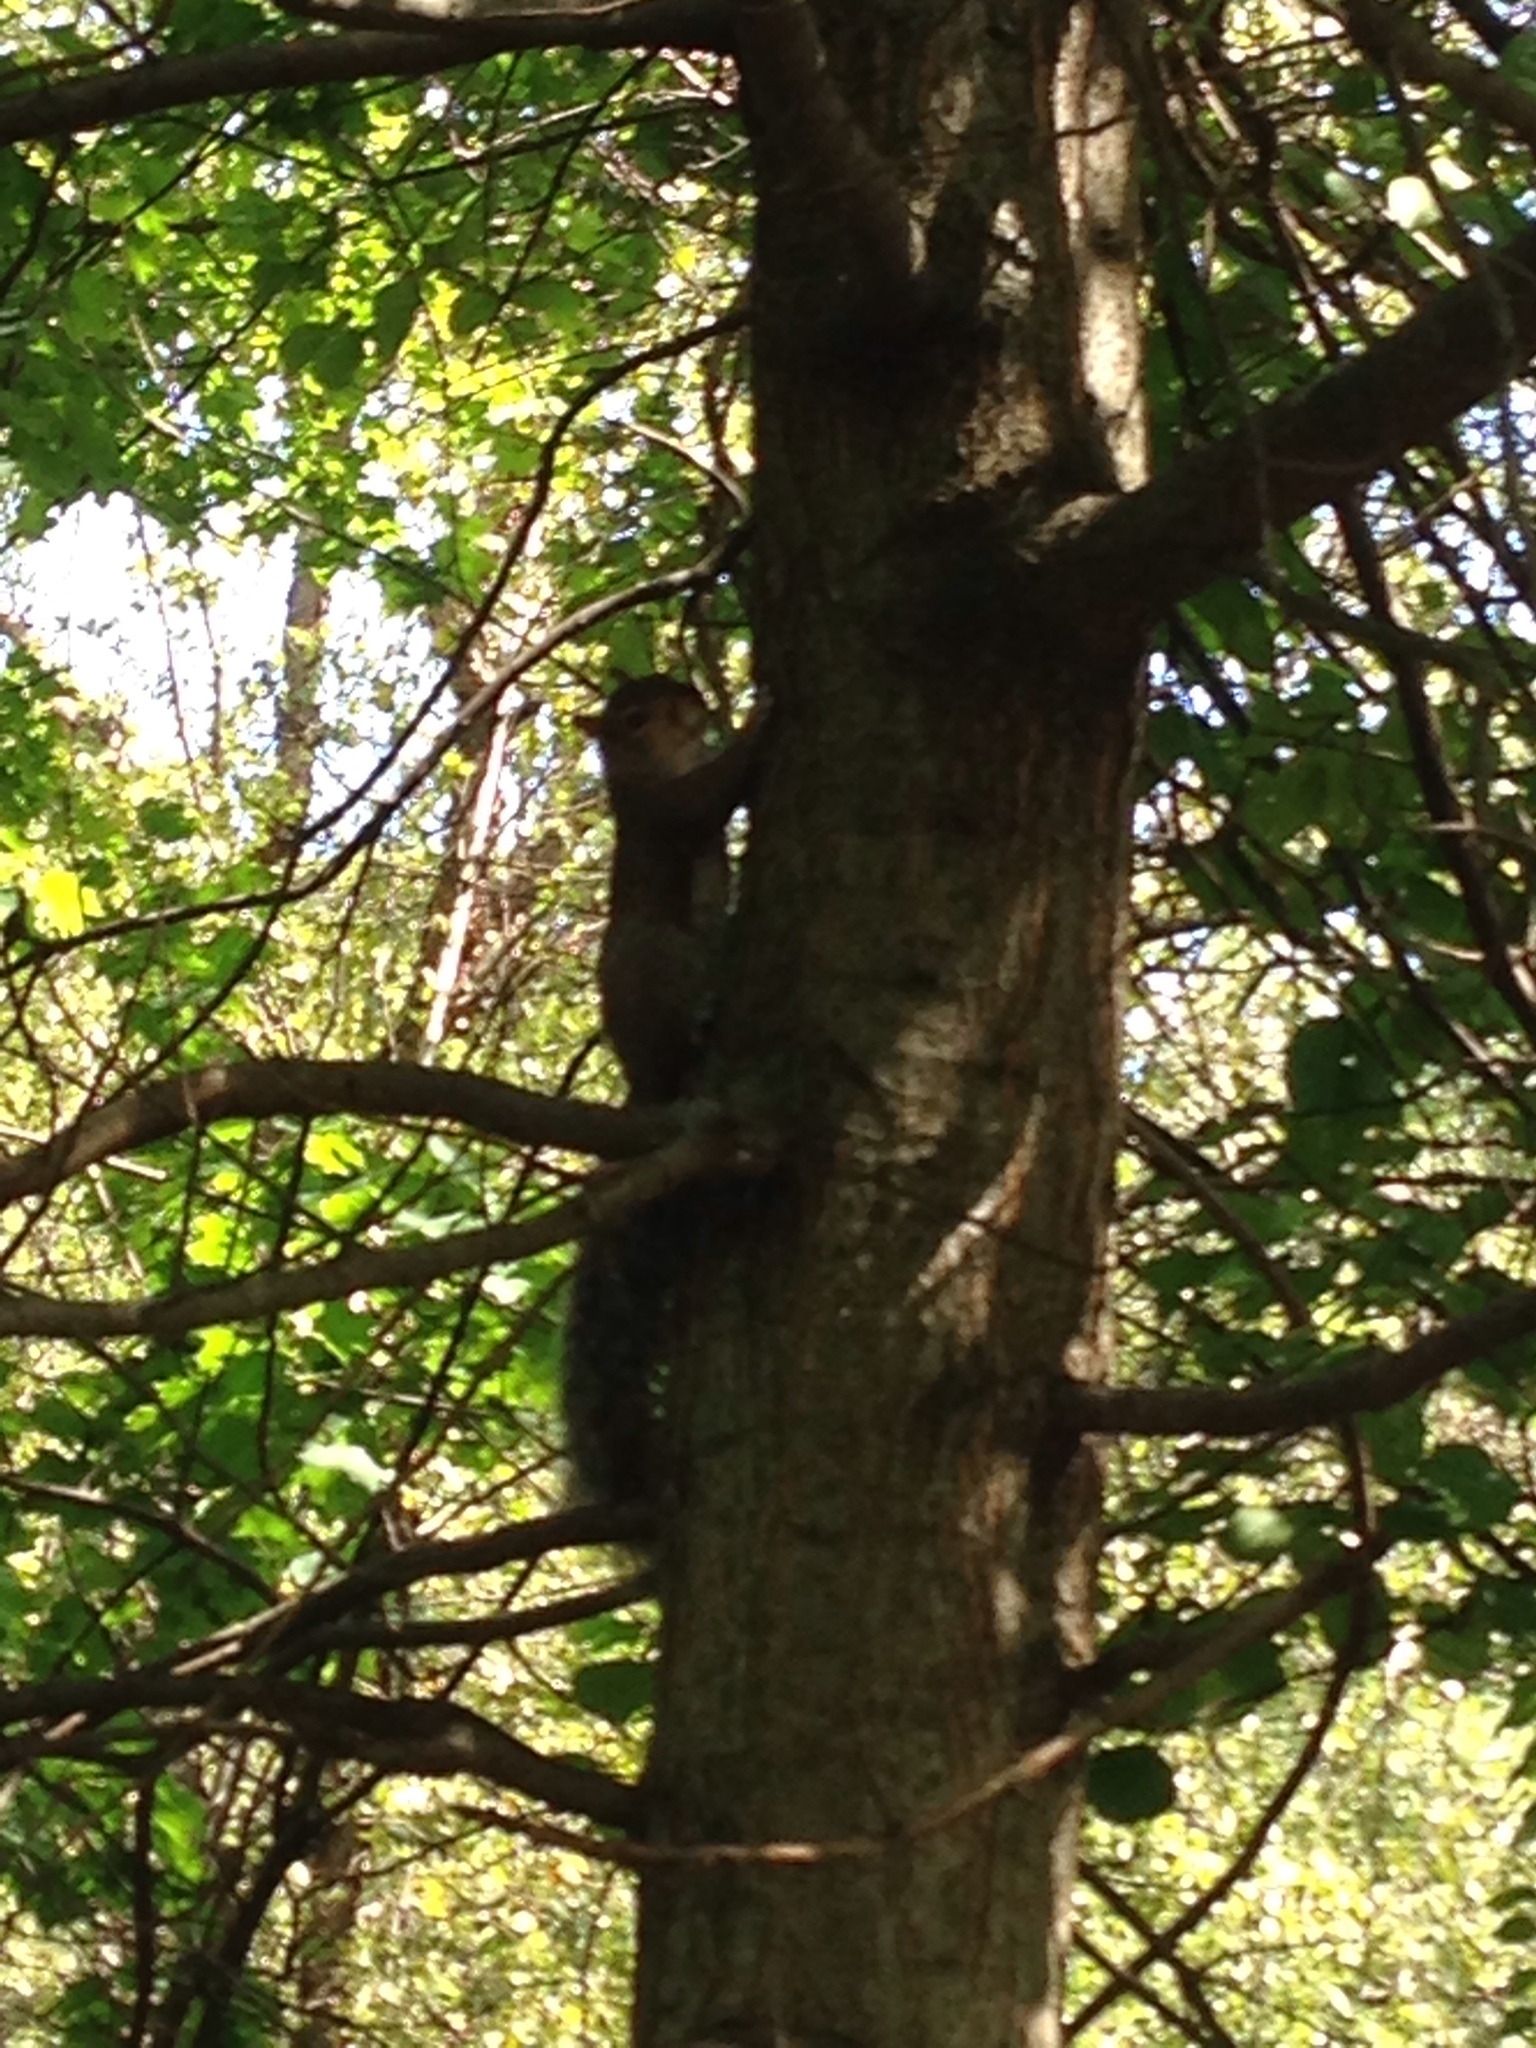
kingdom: Animalia
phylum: Chordata
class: Mammalia
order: Rodentia
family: Sciuridae
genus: Sciurus
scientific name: Sciurus carolinensis
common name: Eastern gray squirrel
